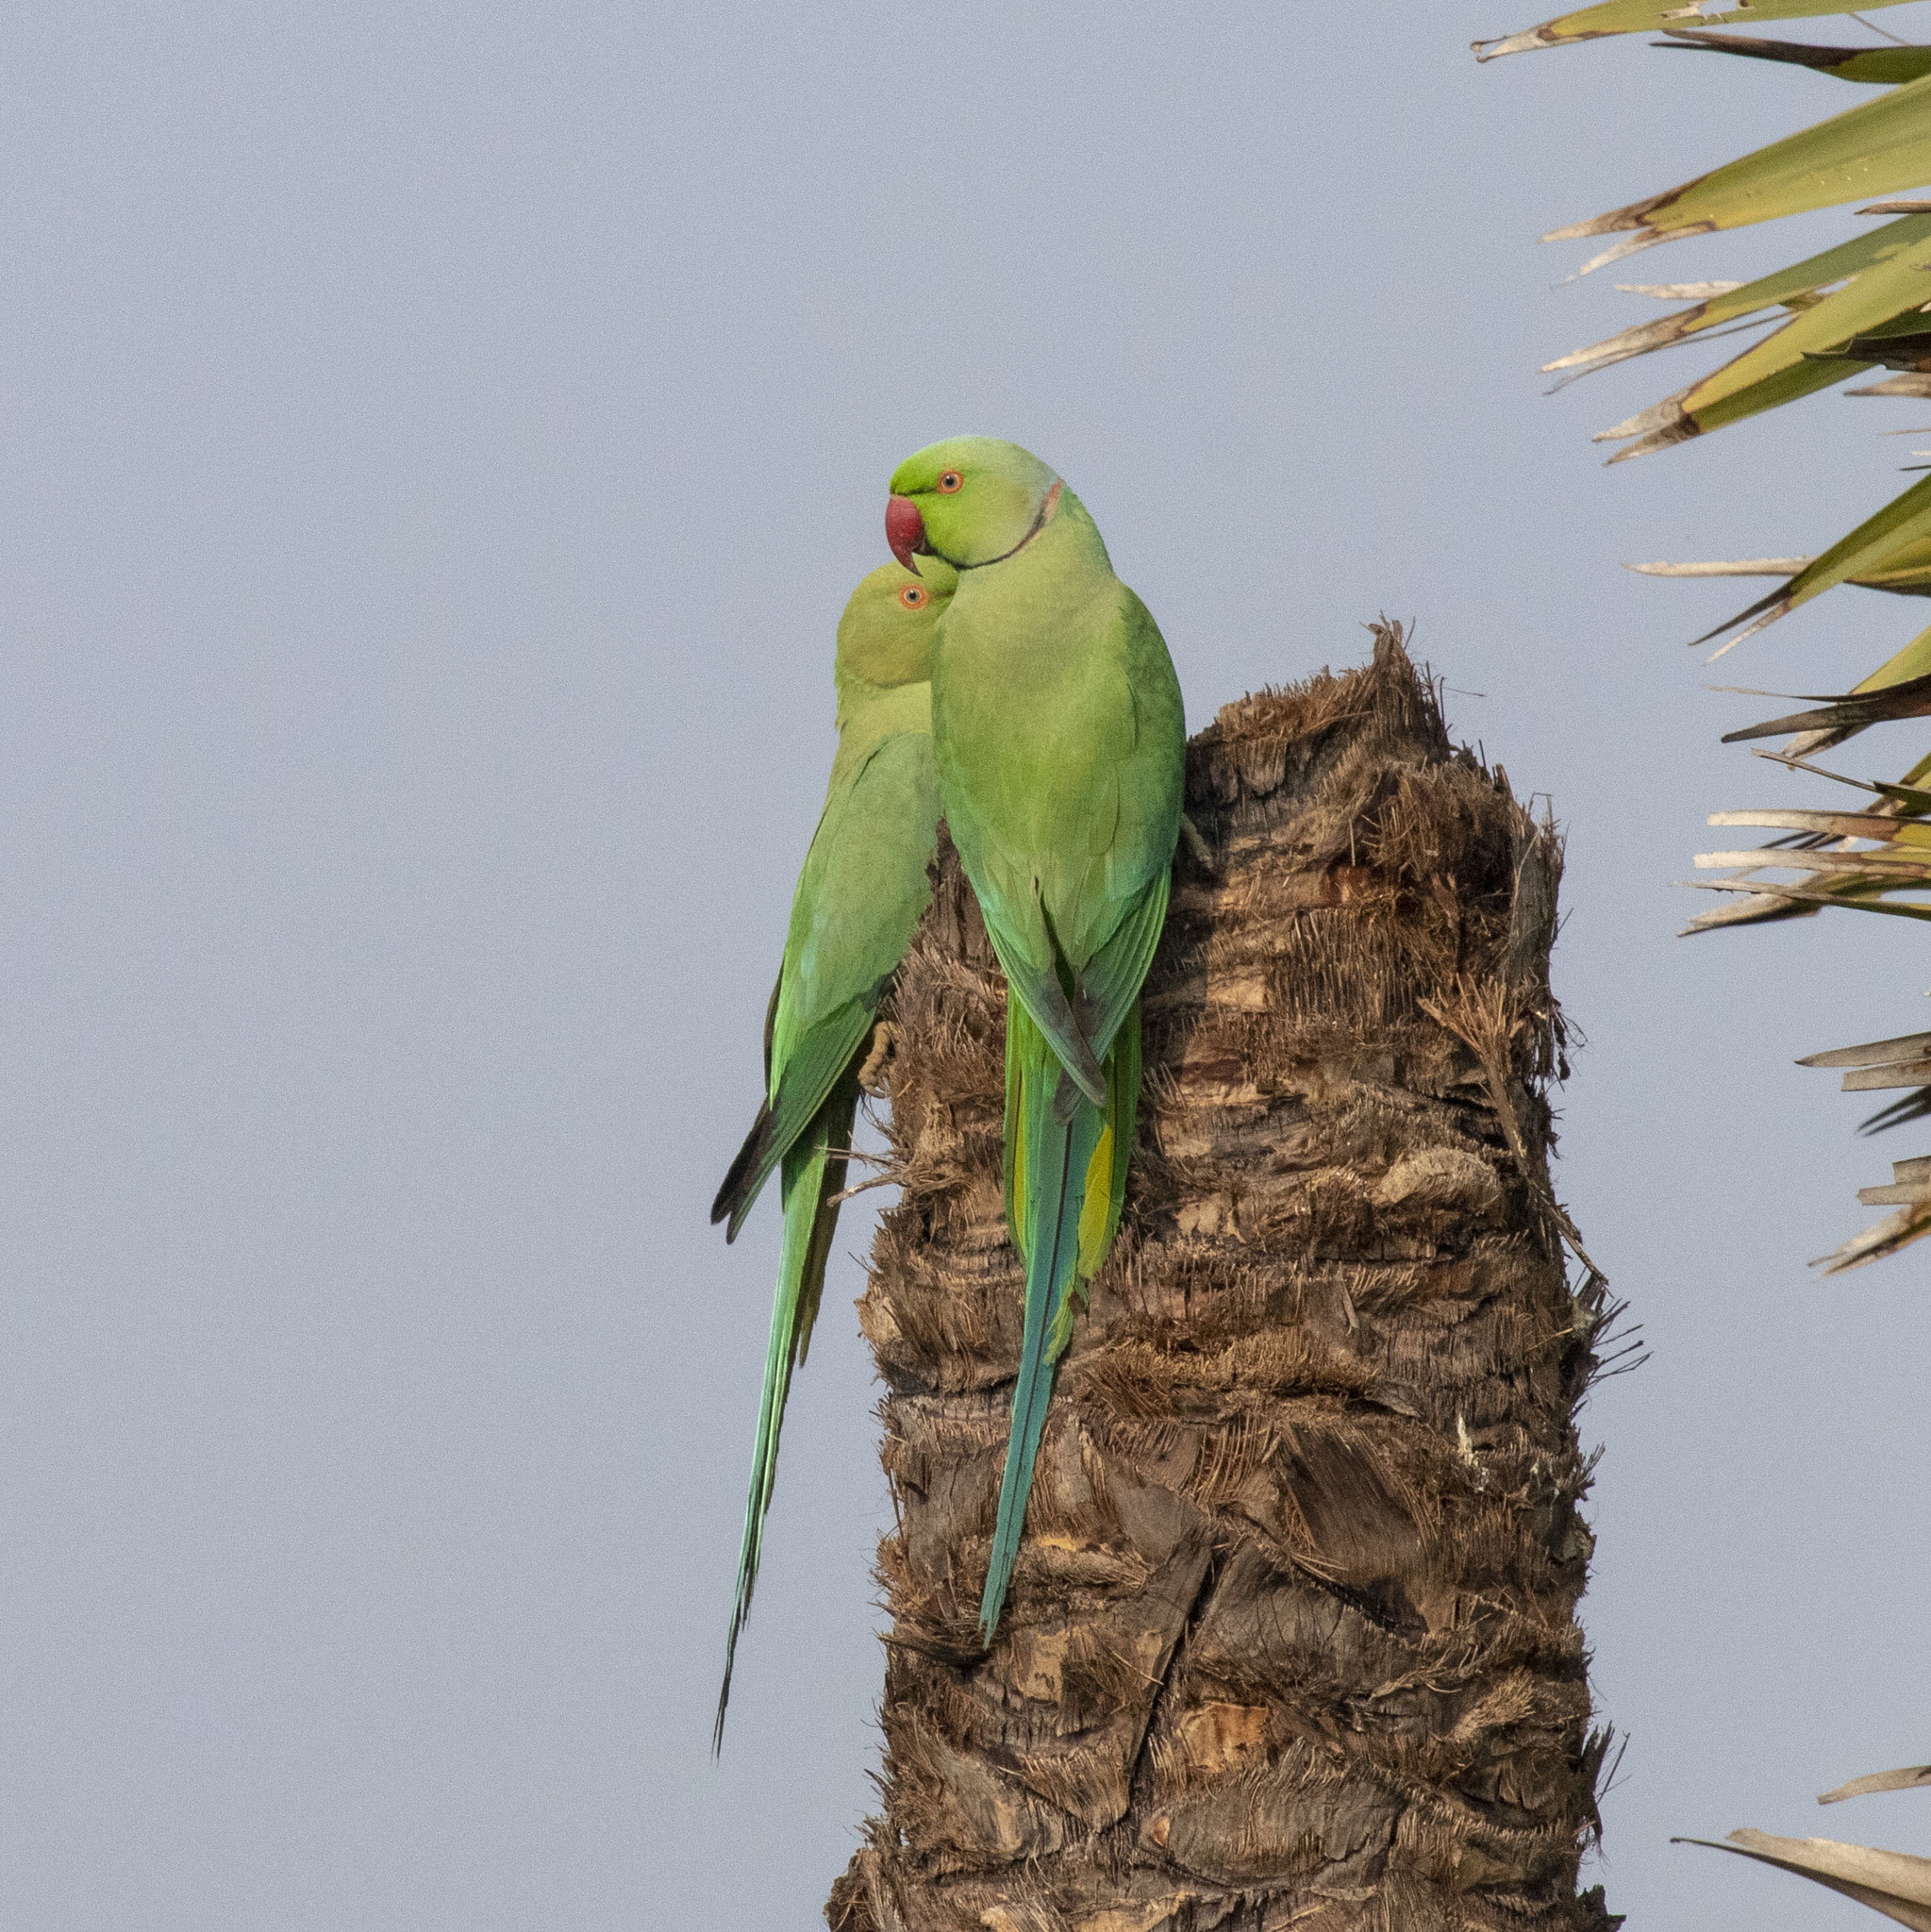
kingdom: Animalia
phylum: Chordata
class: Aves
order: Psittaciformes
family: Psittacidae
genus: Psittacula
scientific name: Psittacula krameri
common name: Rose-ringed parakeet
